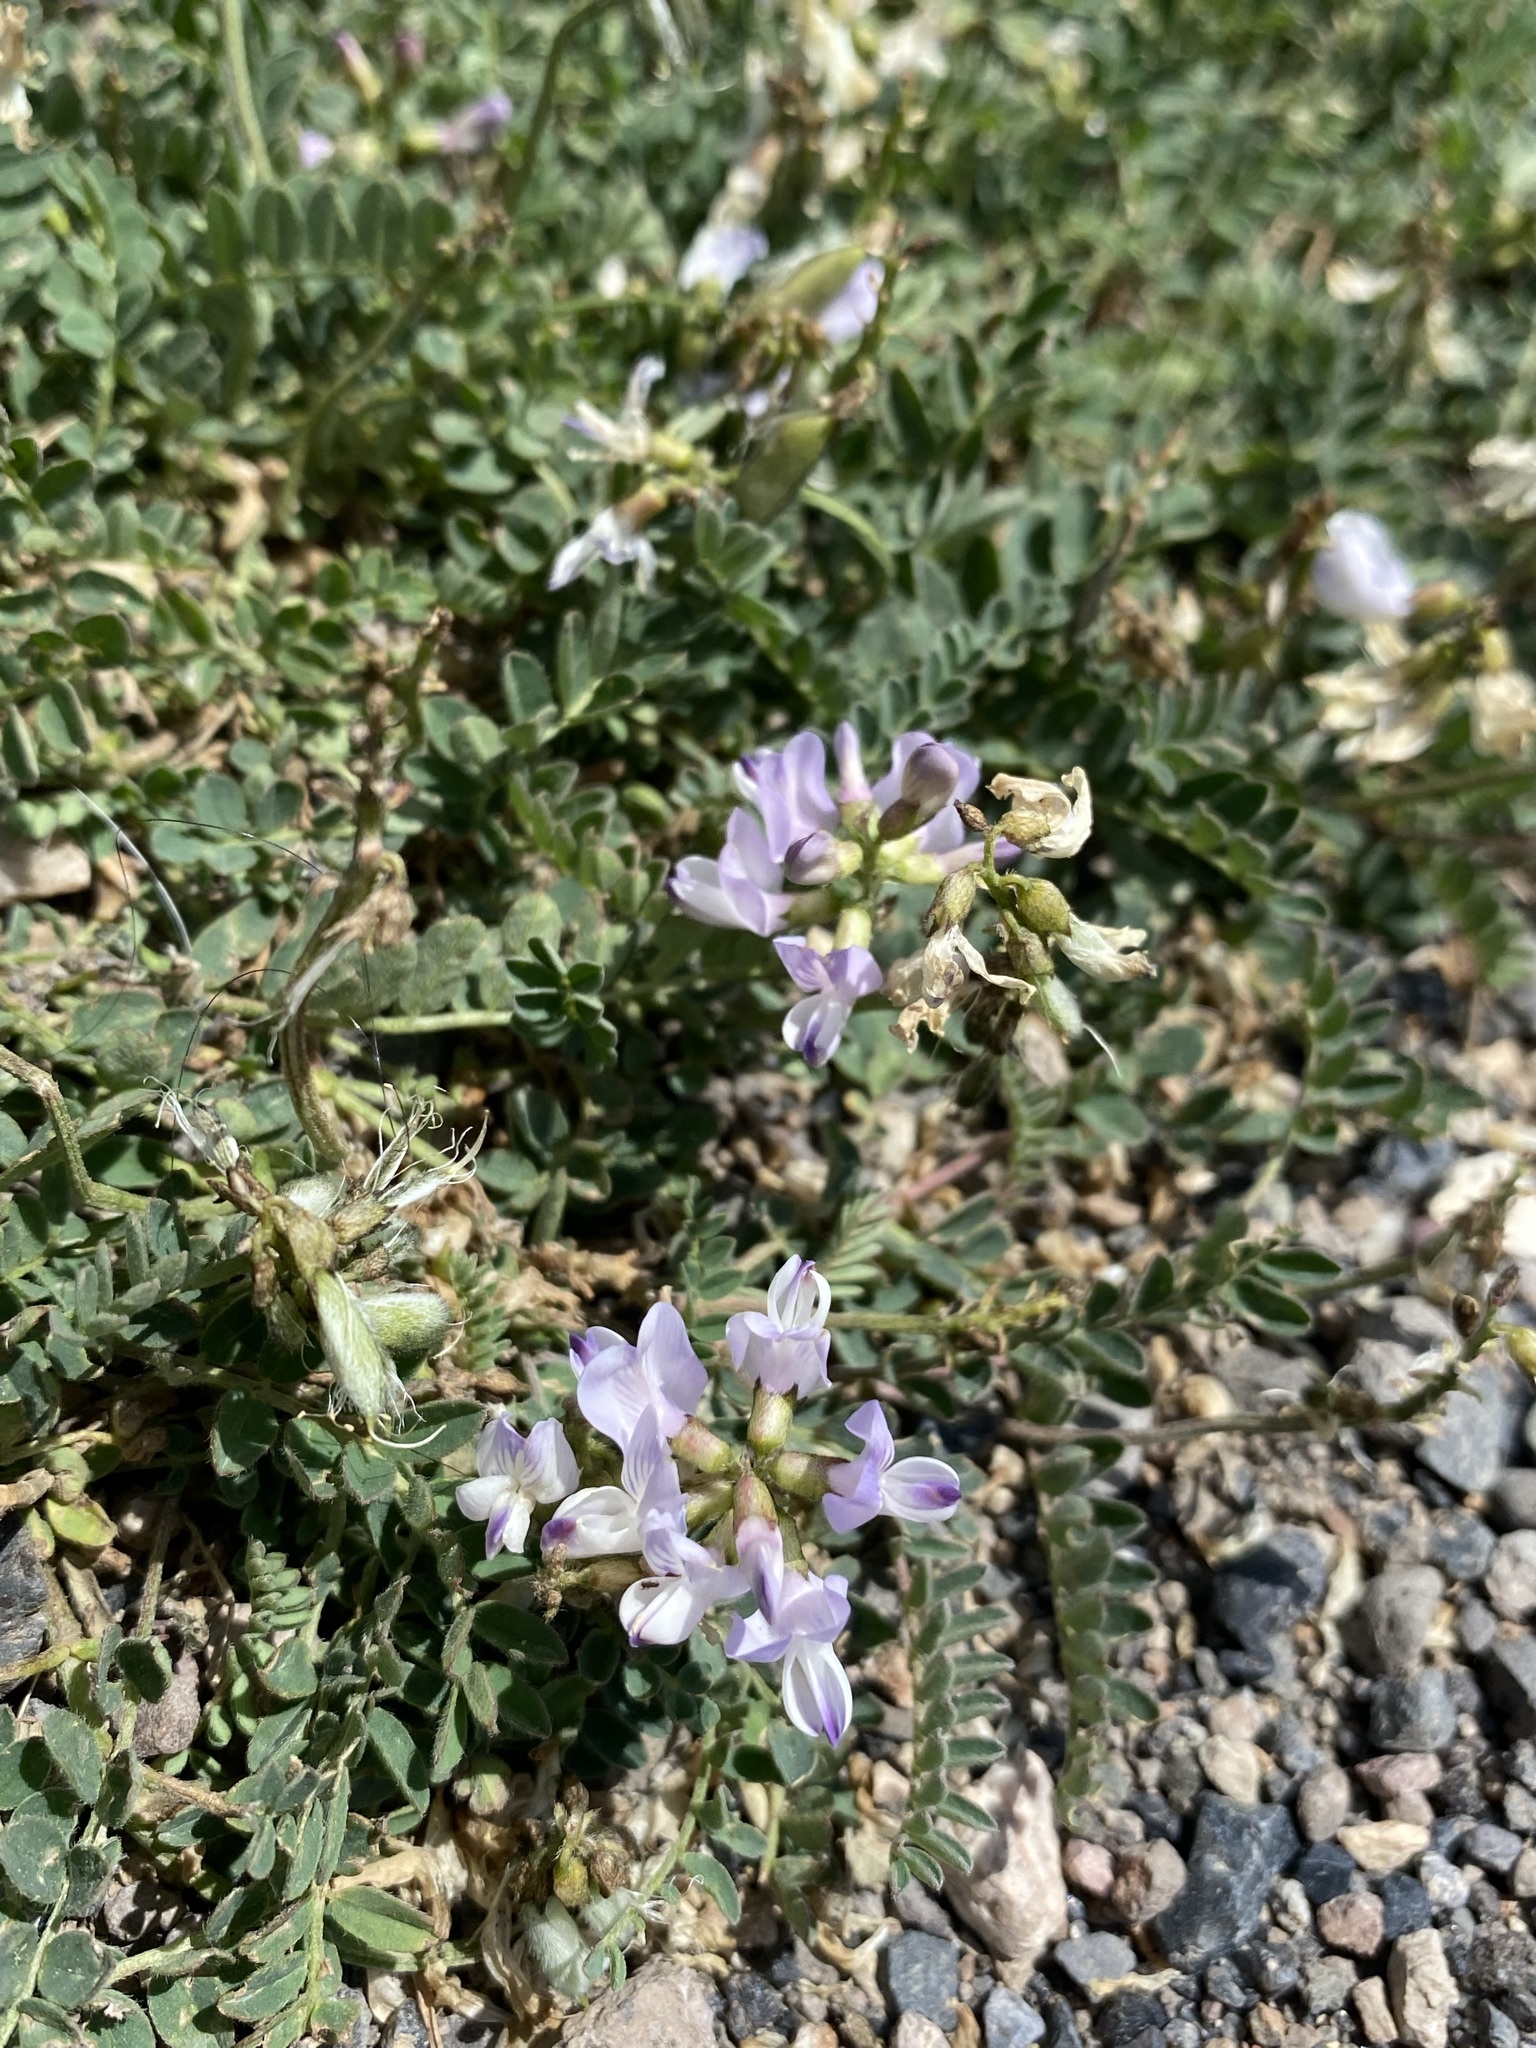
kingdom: Plantae
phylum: Tracheophyta
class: Magnoliopsida
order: Fabales
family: Fabaceae
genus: Astragalus
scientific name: Astragalus alpinus
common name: Alpine milk-vetch
